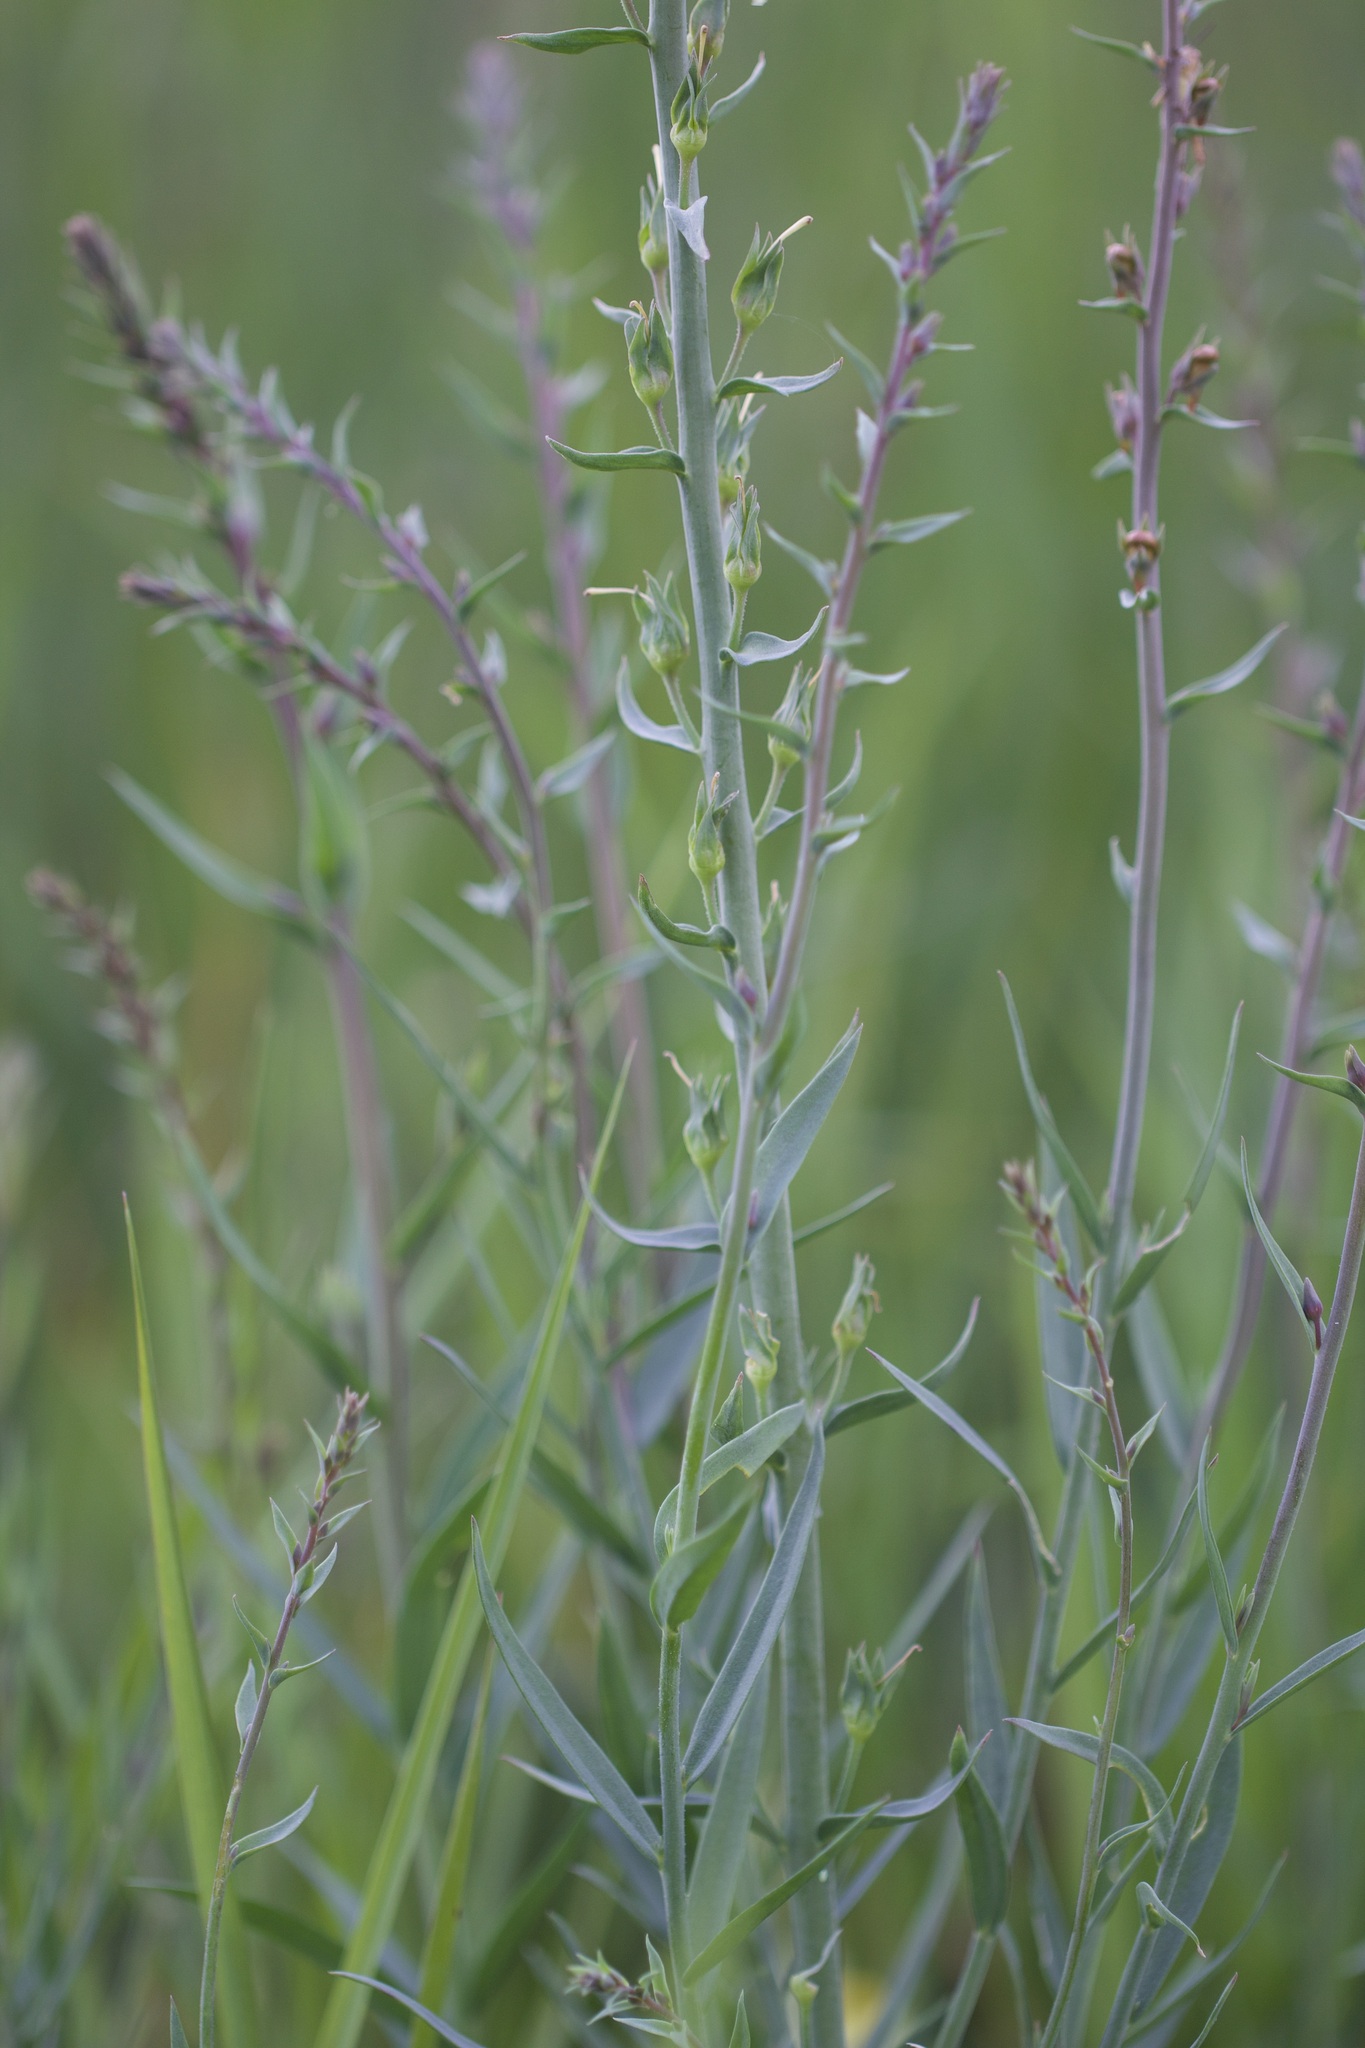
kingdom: Plantae
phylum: Tracheophyta
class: Magnoliopsida
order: Lamiales
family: Plantaginaceae
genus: Linaria
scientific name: Linaria vulgaris
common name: Butter and eggs
